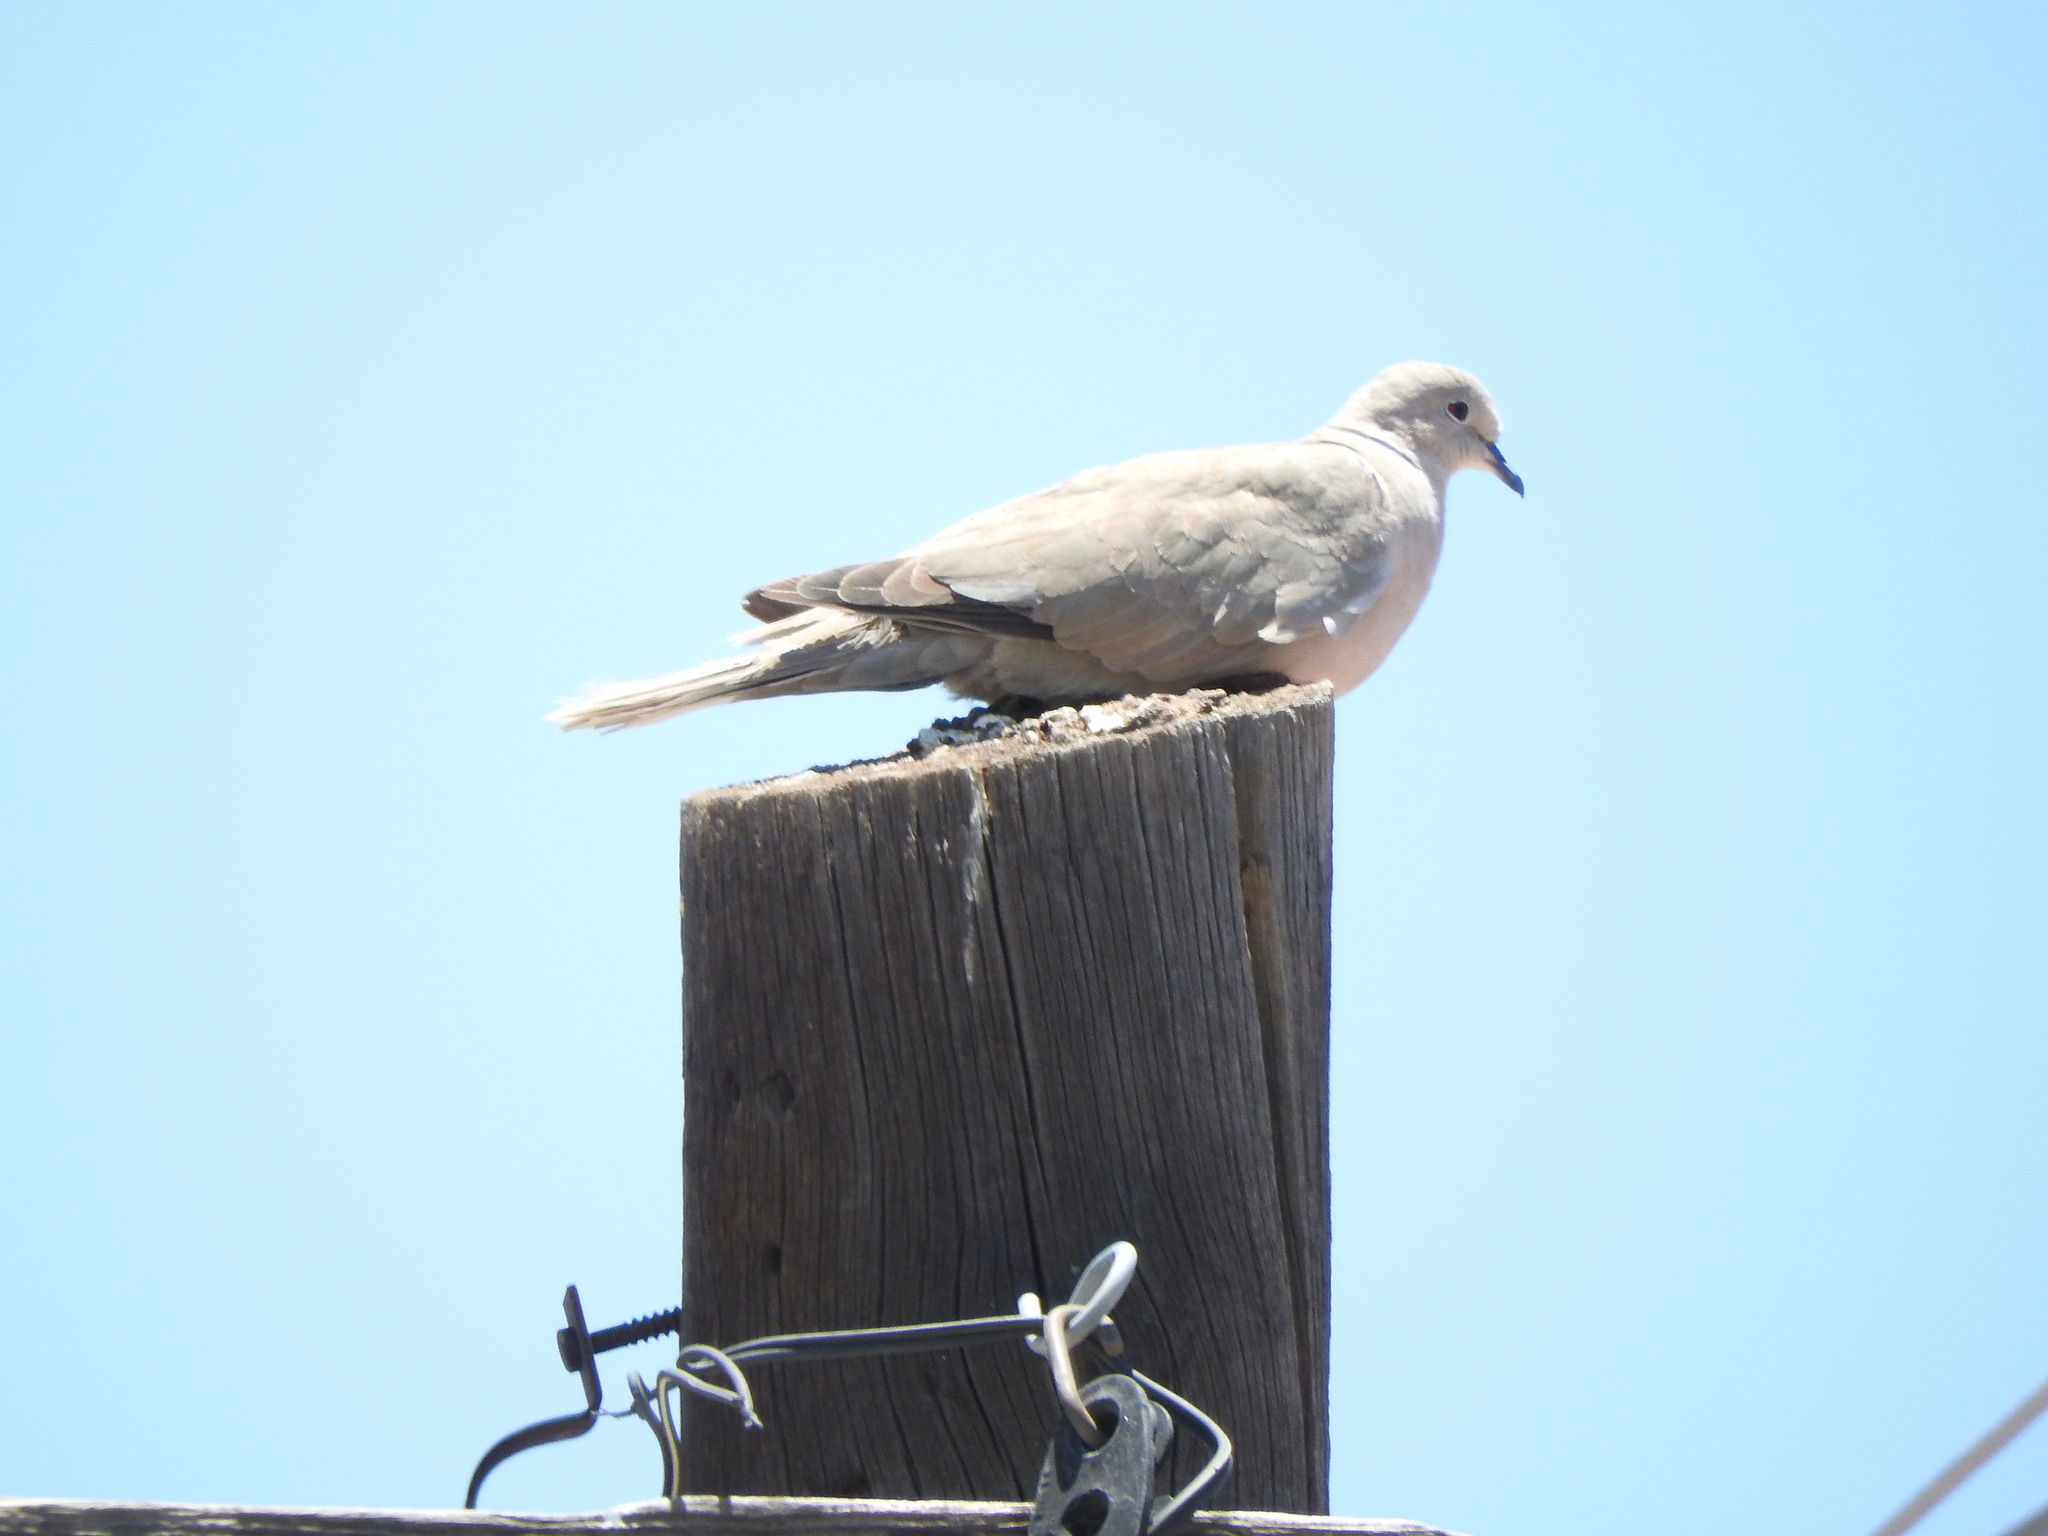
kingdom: Animalia
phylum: Chordata
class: Aves
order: Columbiformes
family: Columbidae
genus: Streptopelia
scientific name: Streptopelia decaocto
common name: Eurasian collared dove
